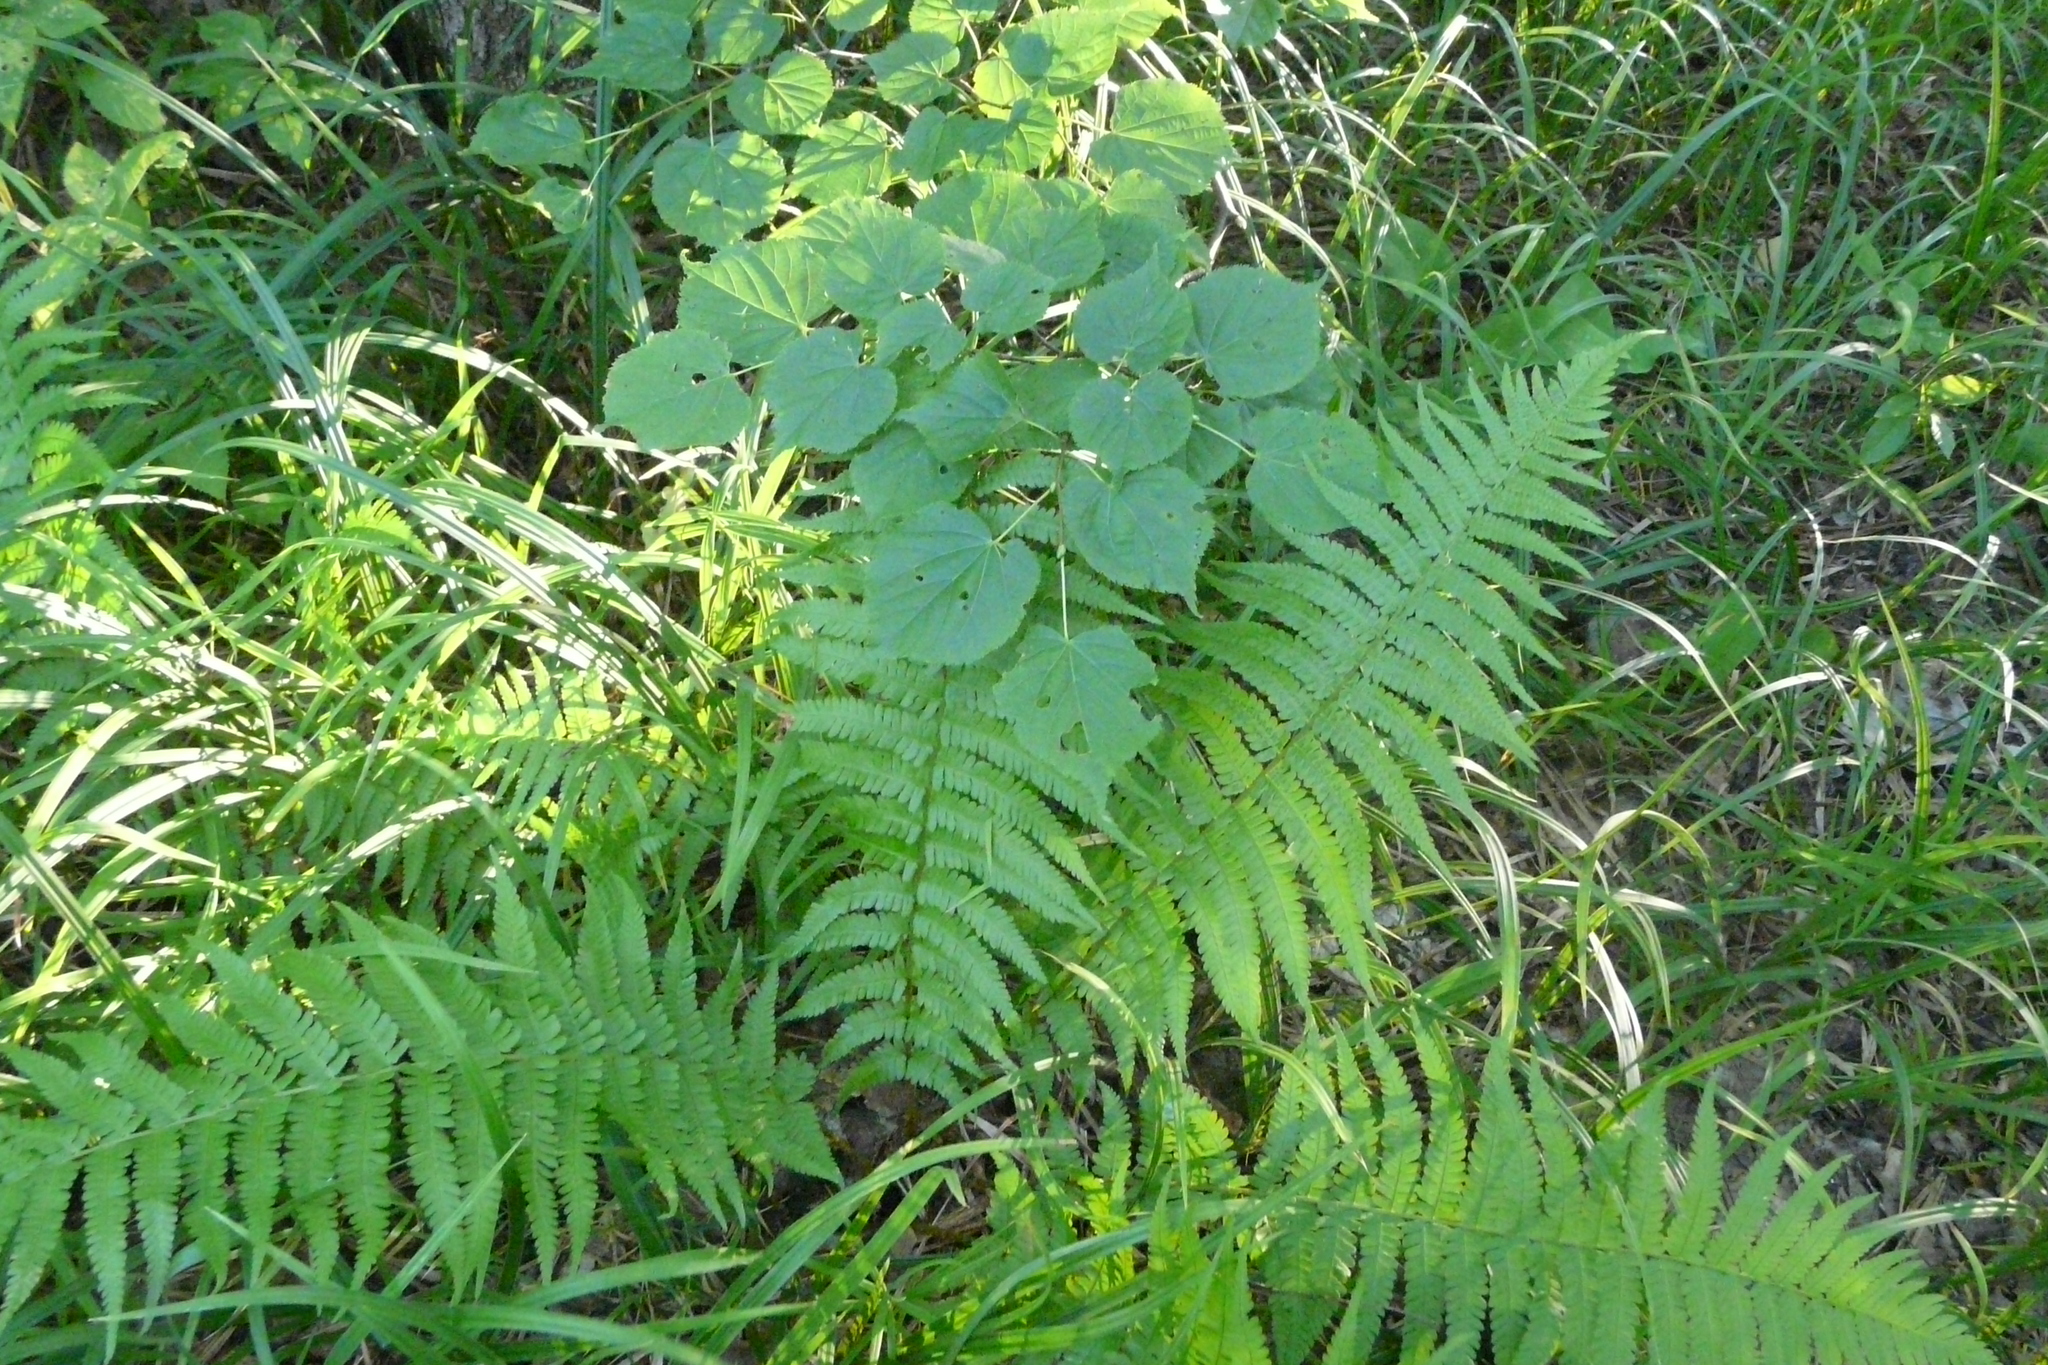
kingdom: Plantae
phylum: Tracheophyta
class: Polypodiopsida
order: Polypodiales
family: Dryopteridaceae
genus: Dryopteris
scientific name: Dryopteris filix-mas
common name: Male fern
